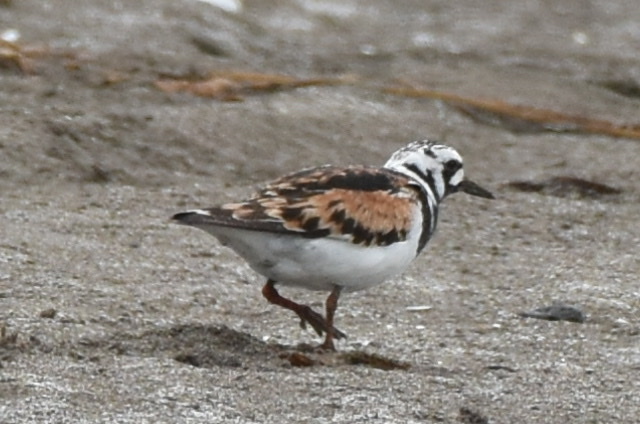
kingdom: Animalia
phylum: Chordata
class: Aves
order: Charadriiformes
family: Scolopacidae
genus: Arenaria
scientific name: Arenaria interpres
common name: Ruddy turnstone
